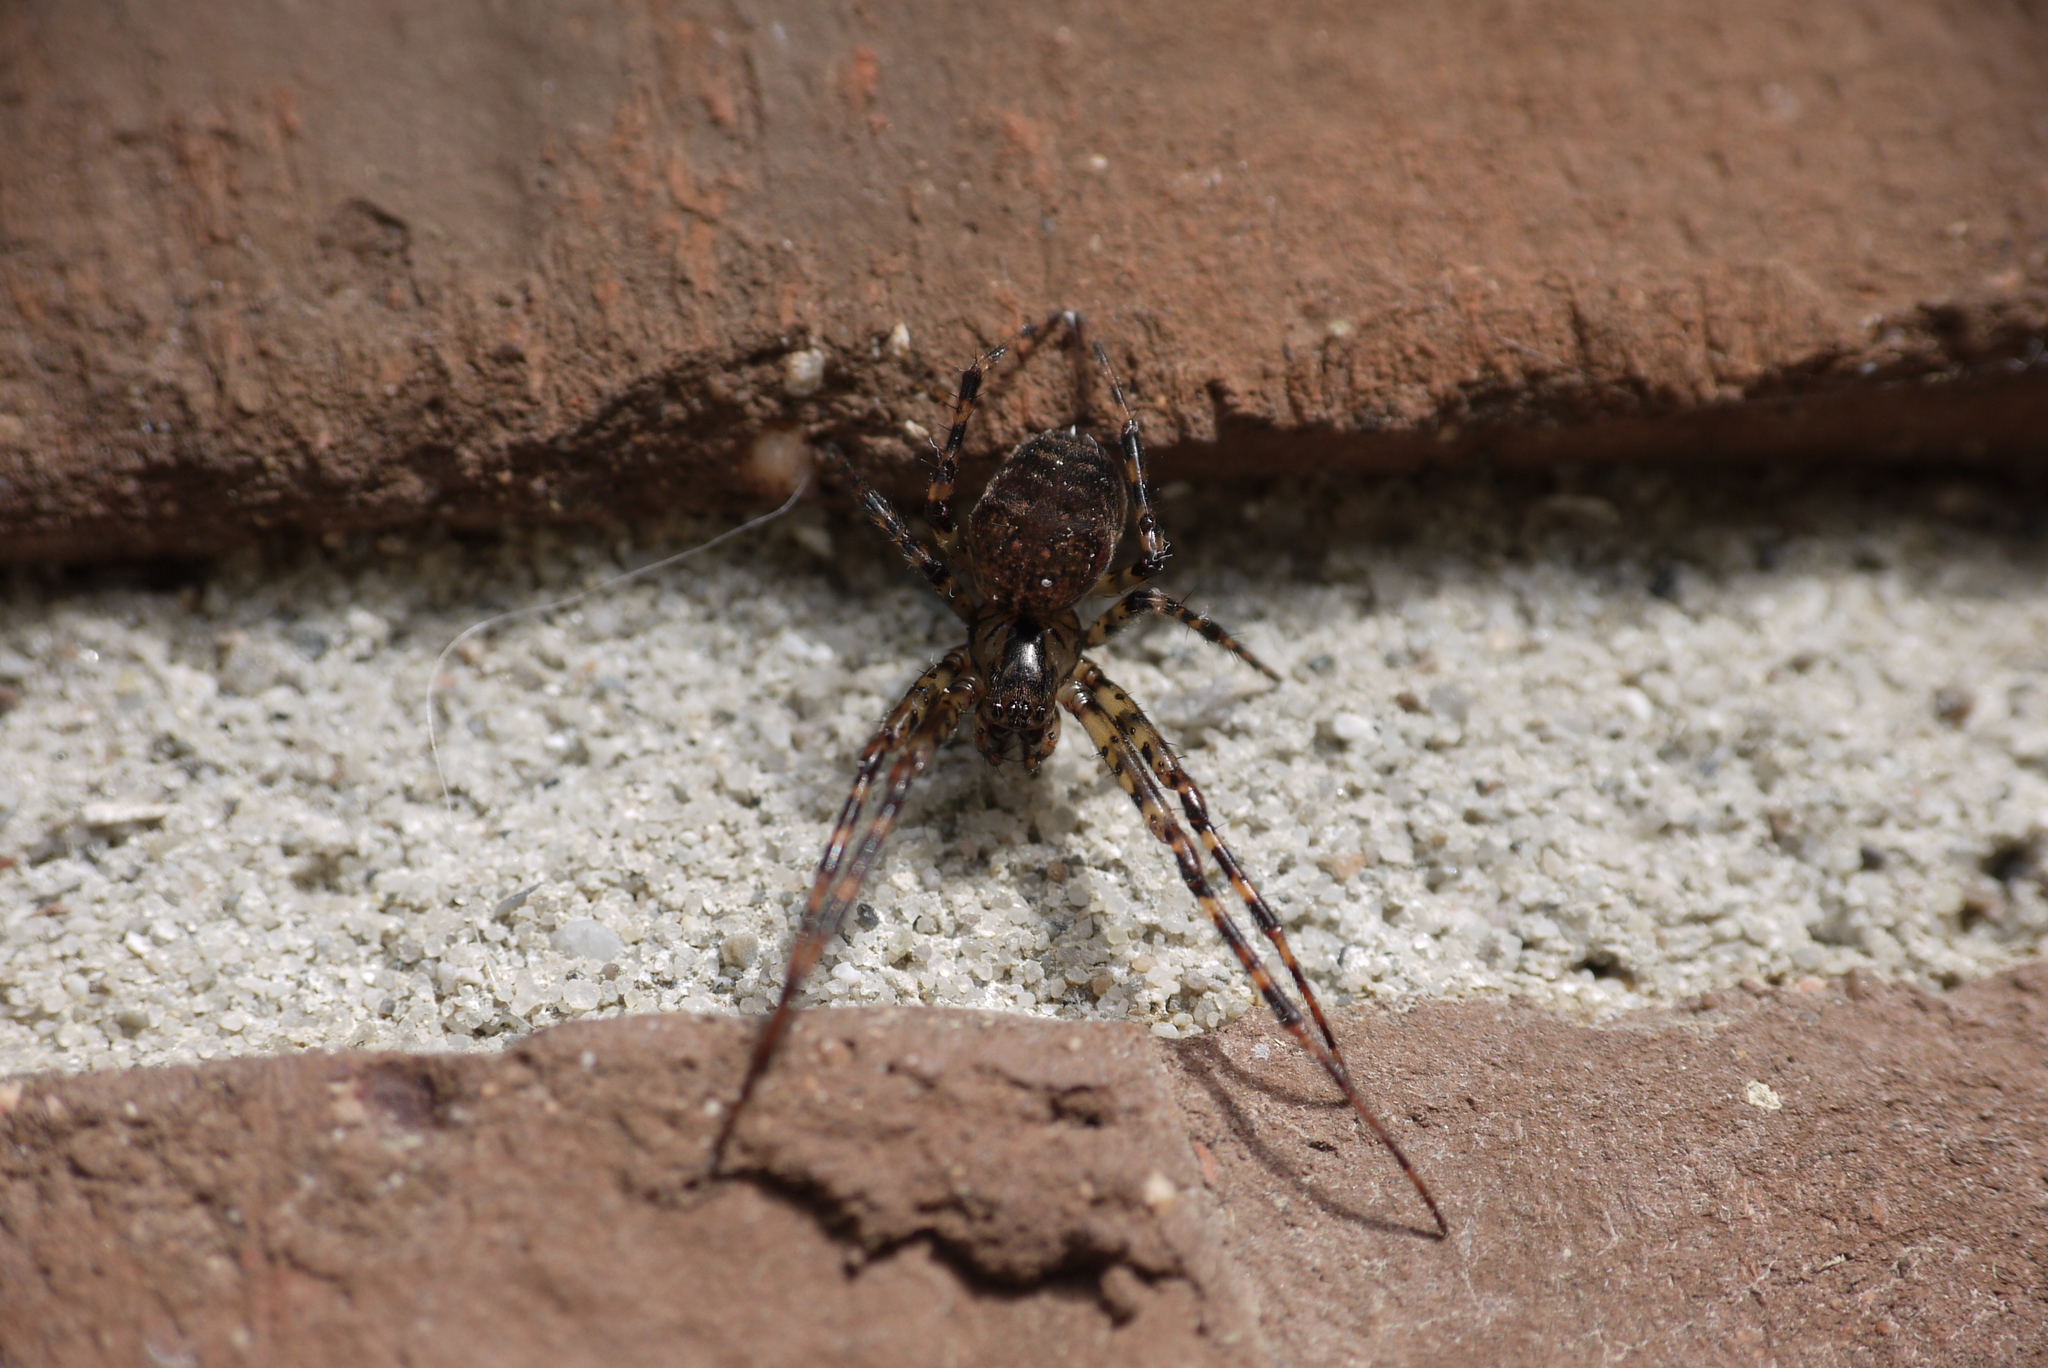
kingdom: Animalia
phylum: Arthropoda
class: Arachnida
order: Araneae
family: Tetragnathidae
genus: Metellina
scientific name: Metellina merianae
